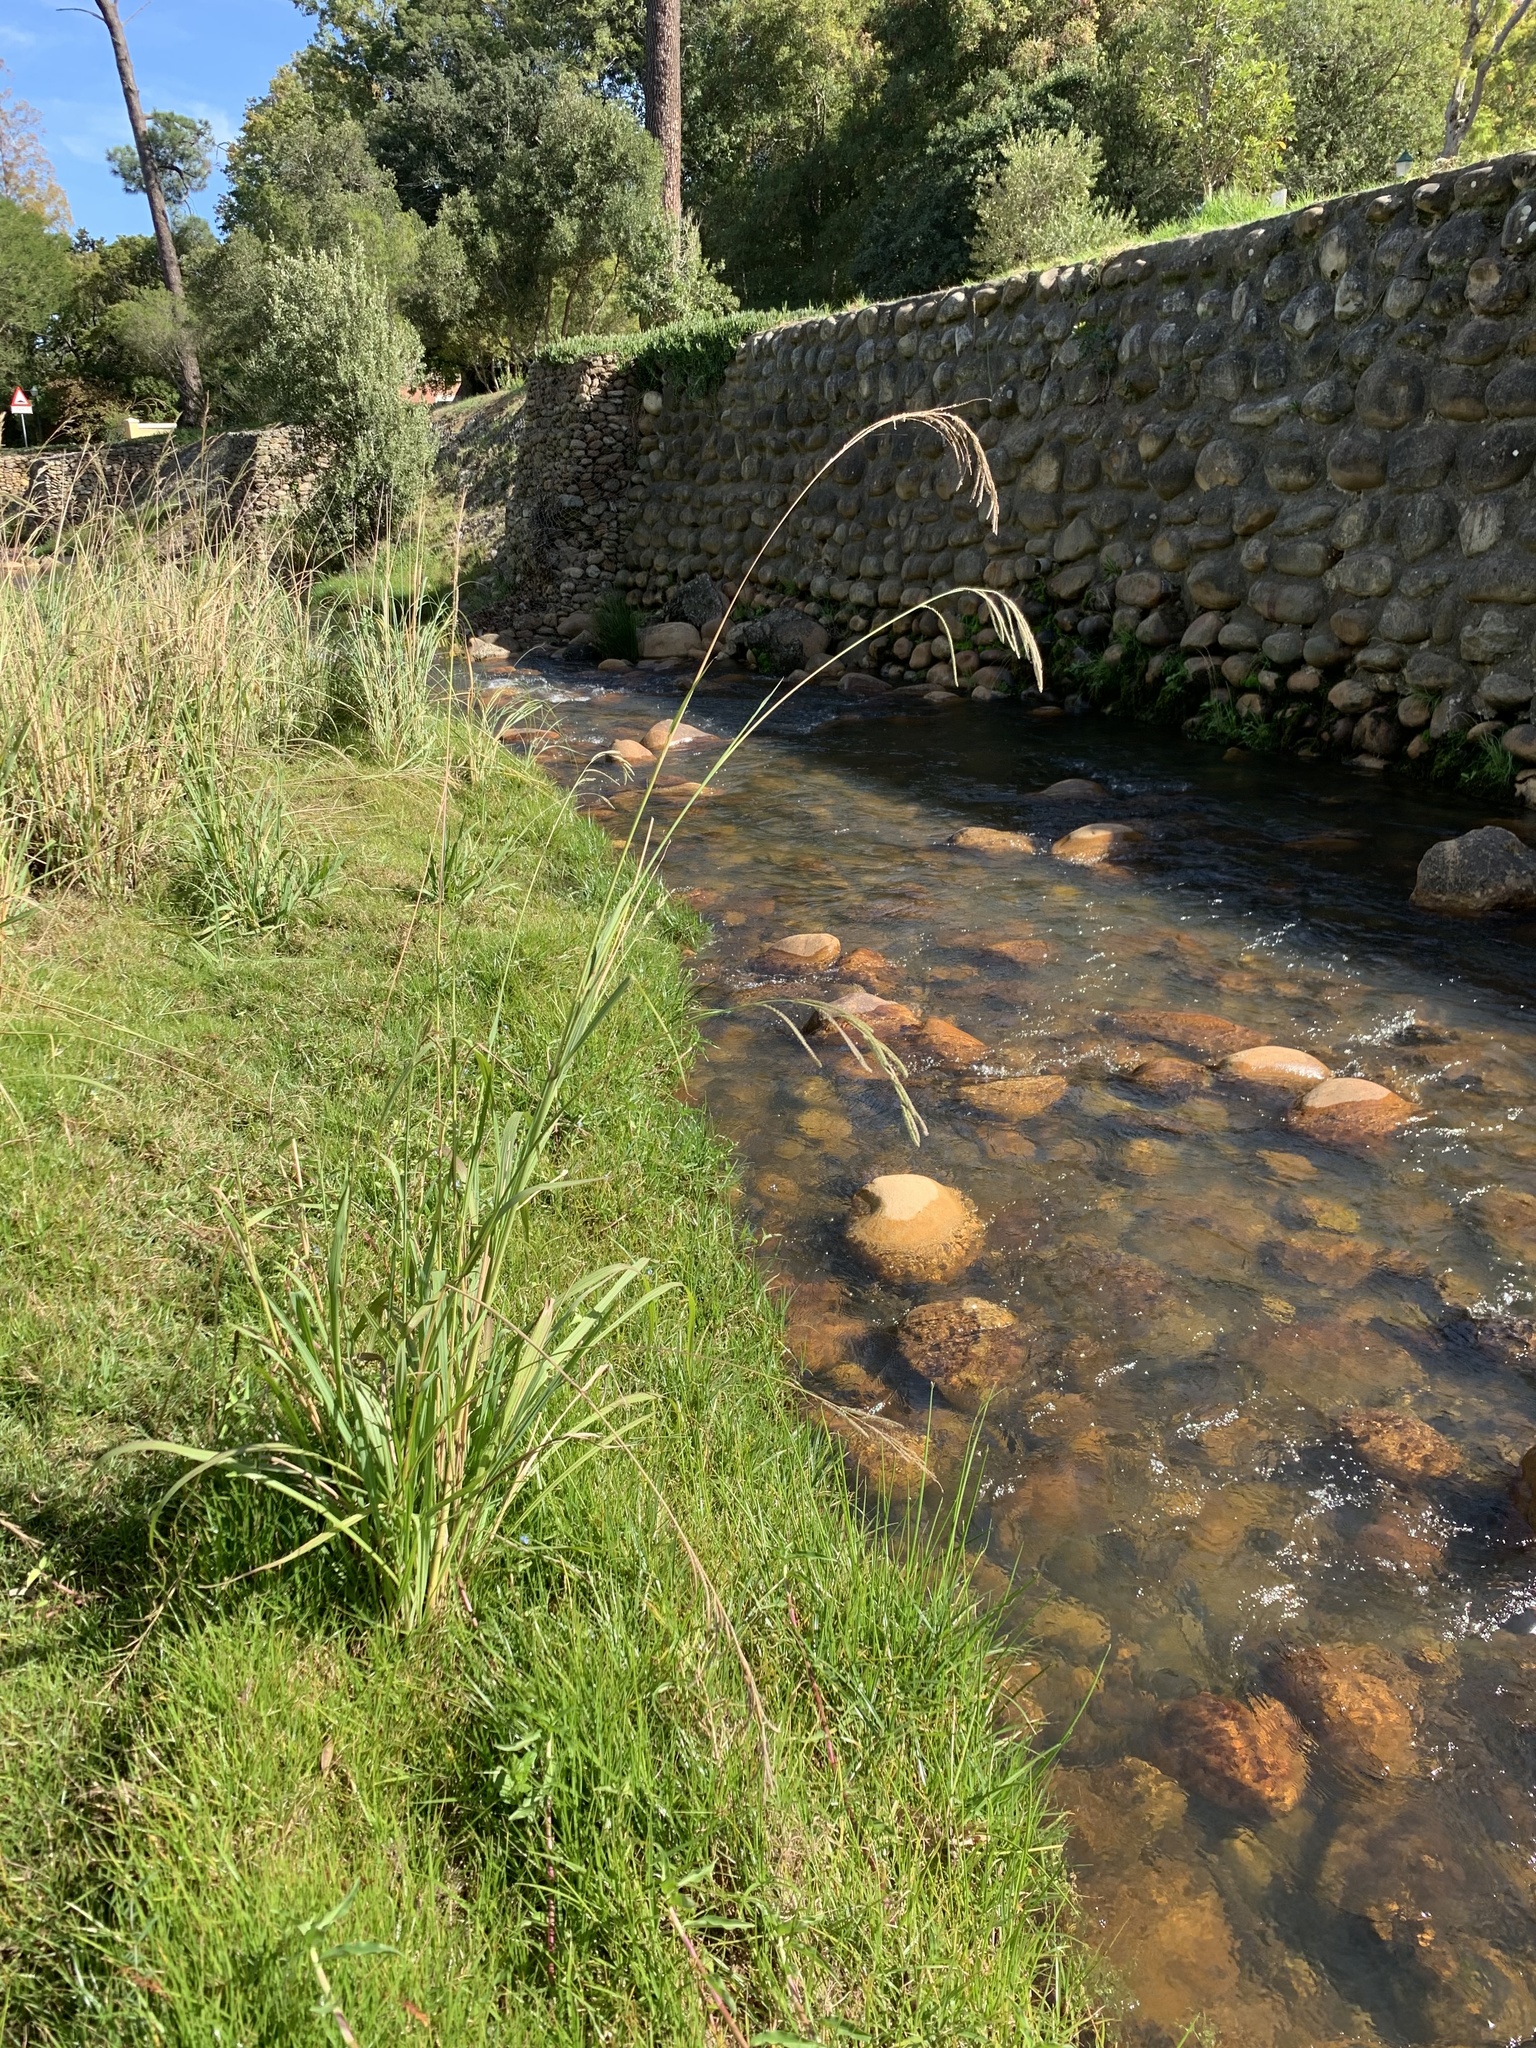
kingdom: Plantae
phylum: Tracheophyta
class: Liliopsida
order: Poales
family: Poaceae
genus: Paspalum
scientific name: Paspalum urvillei
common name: Vasey's grass
